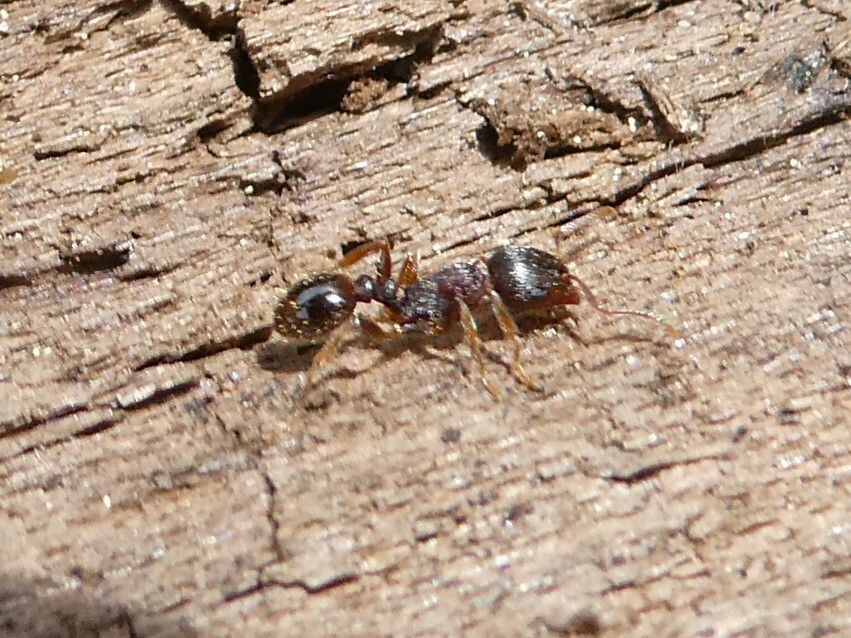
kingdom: Animalia
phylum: Arthropoda
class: Insecta
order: Hymenoptera
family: Formicidae
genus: Tetramorium
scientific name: Tetramorium immigrans
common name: Pavement ant
